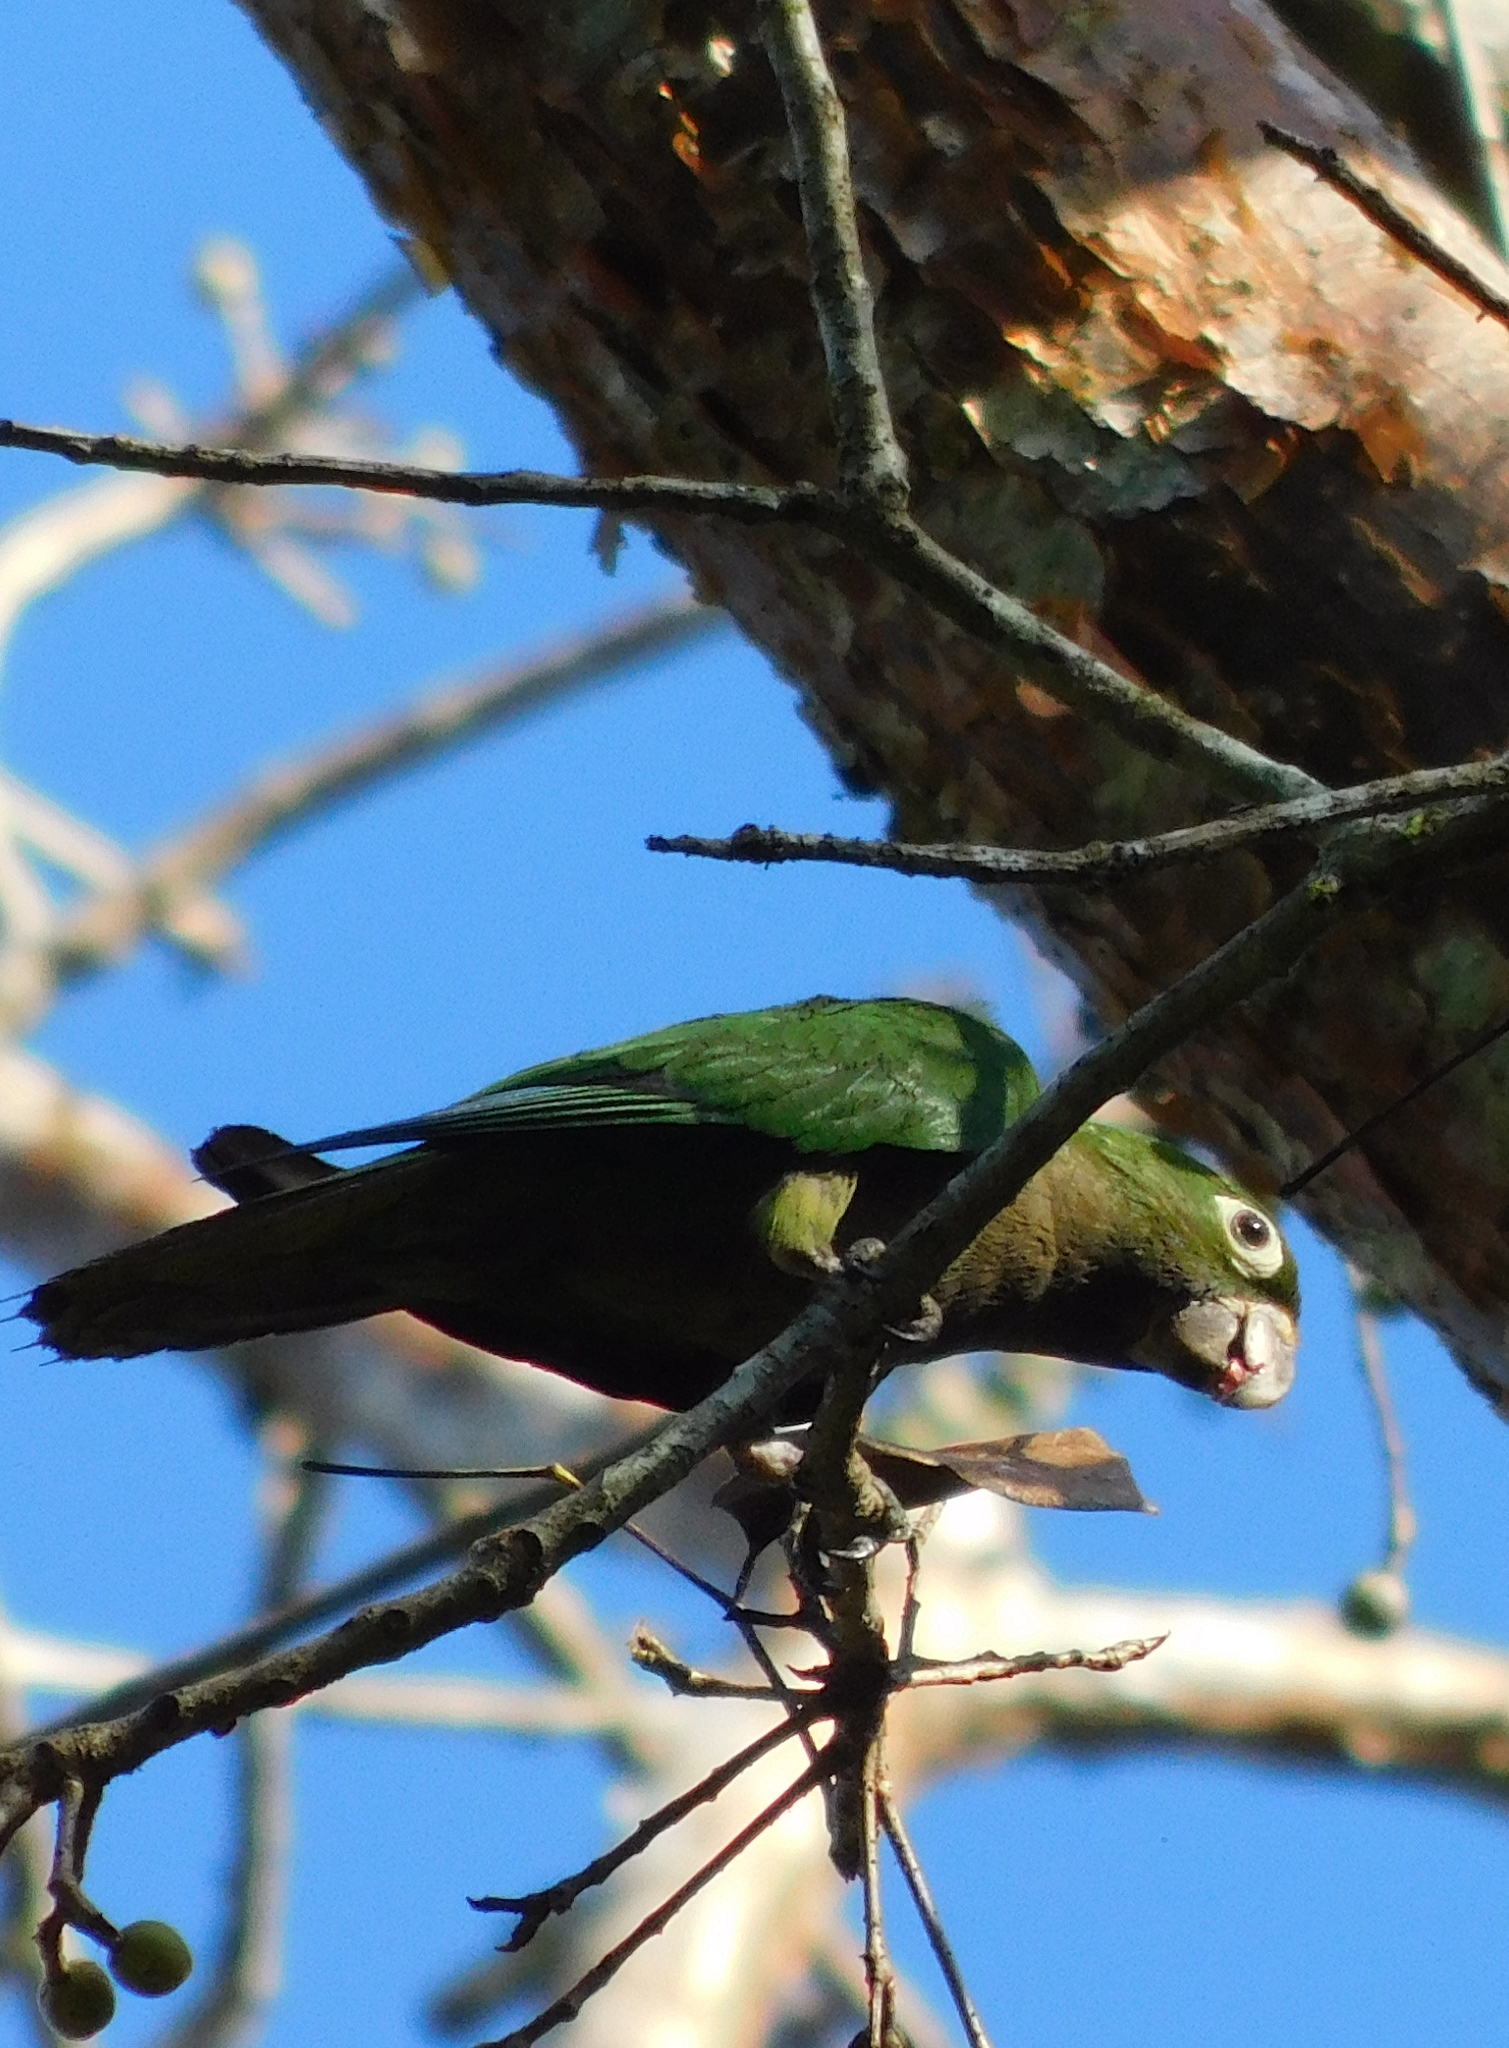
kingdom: Animalia
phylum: Chordata
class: Aves
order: Psittaciformes
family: Psittacidae
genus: Aratinga
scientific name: Aratinga nana
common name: Olive-throated parakeet
